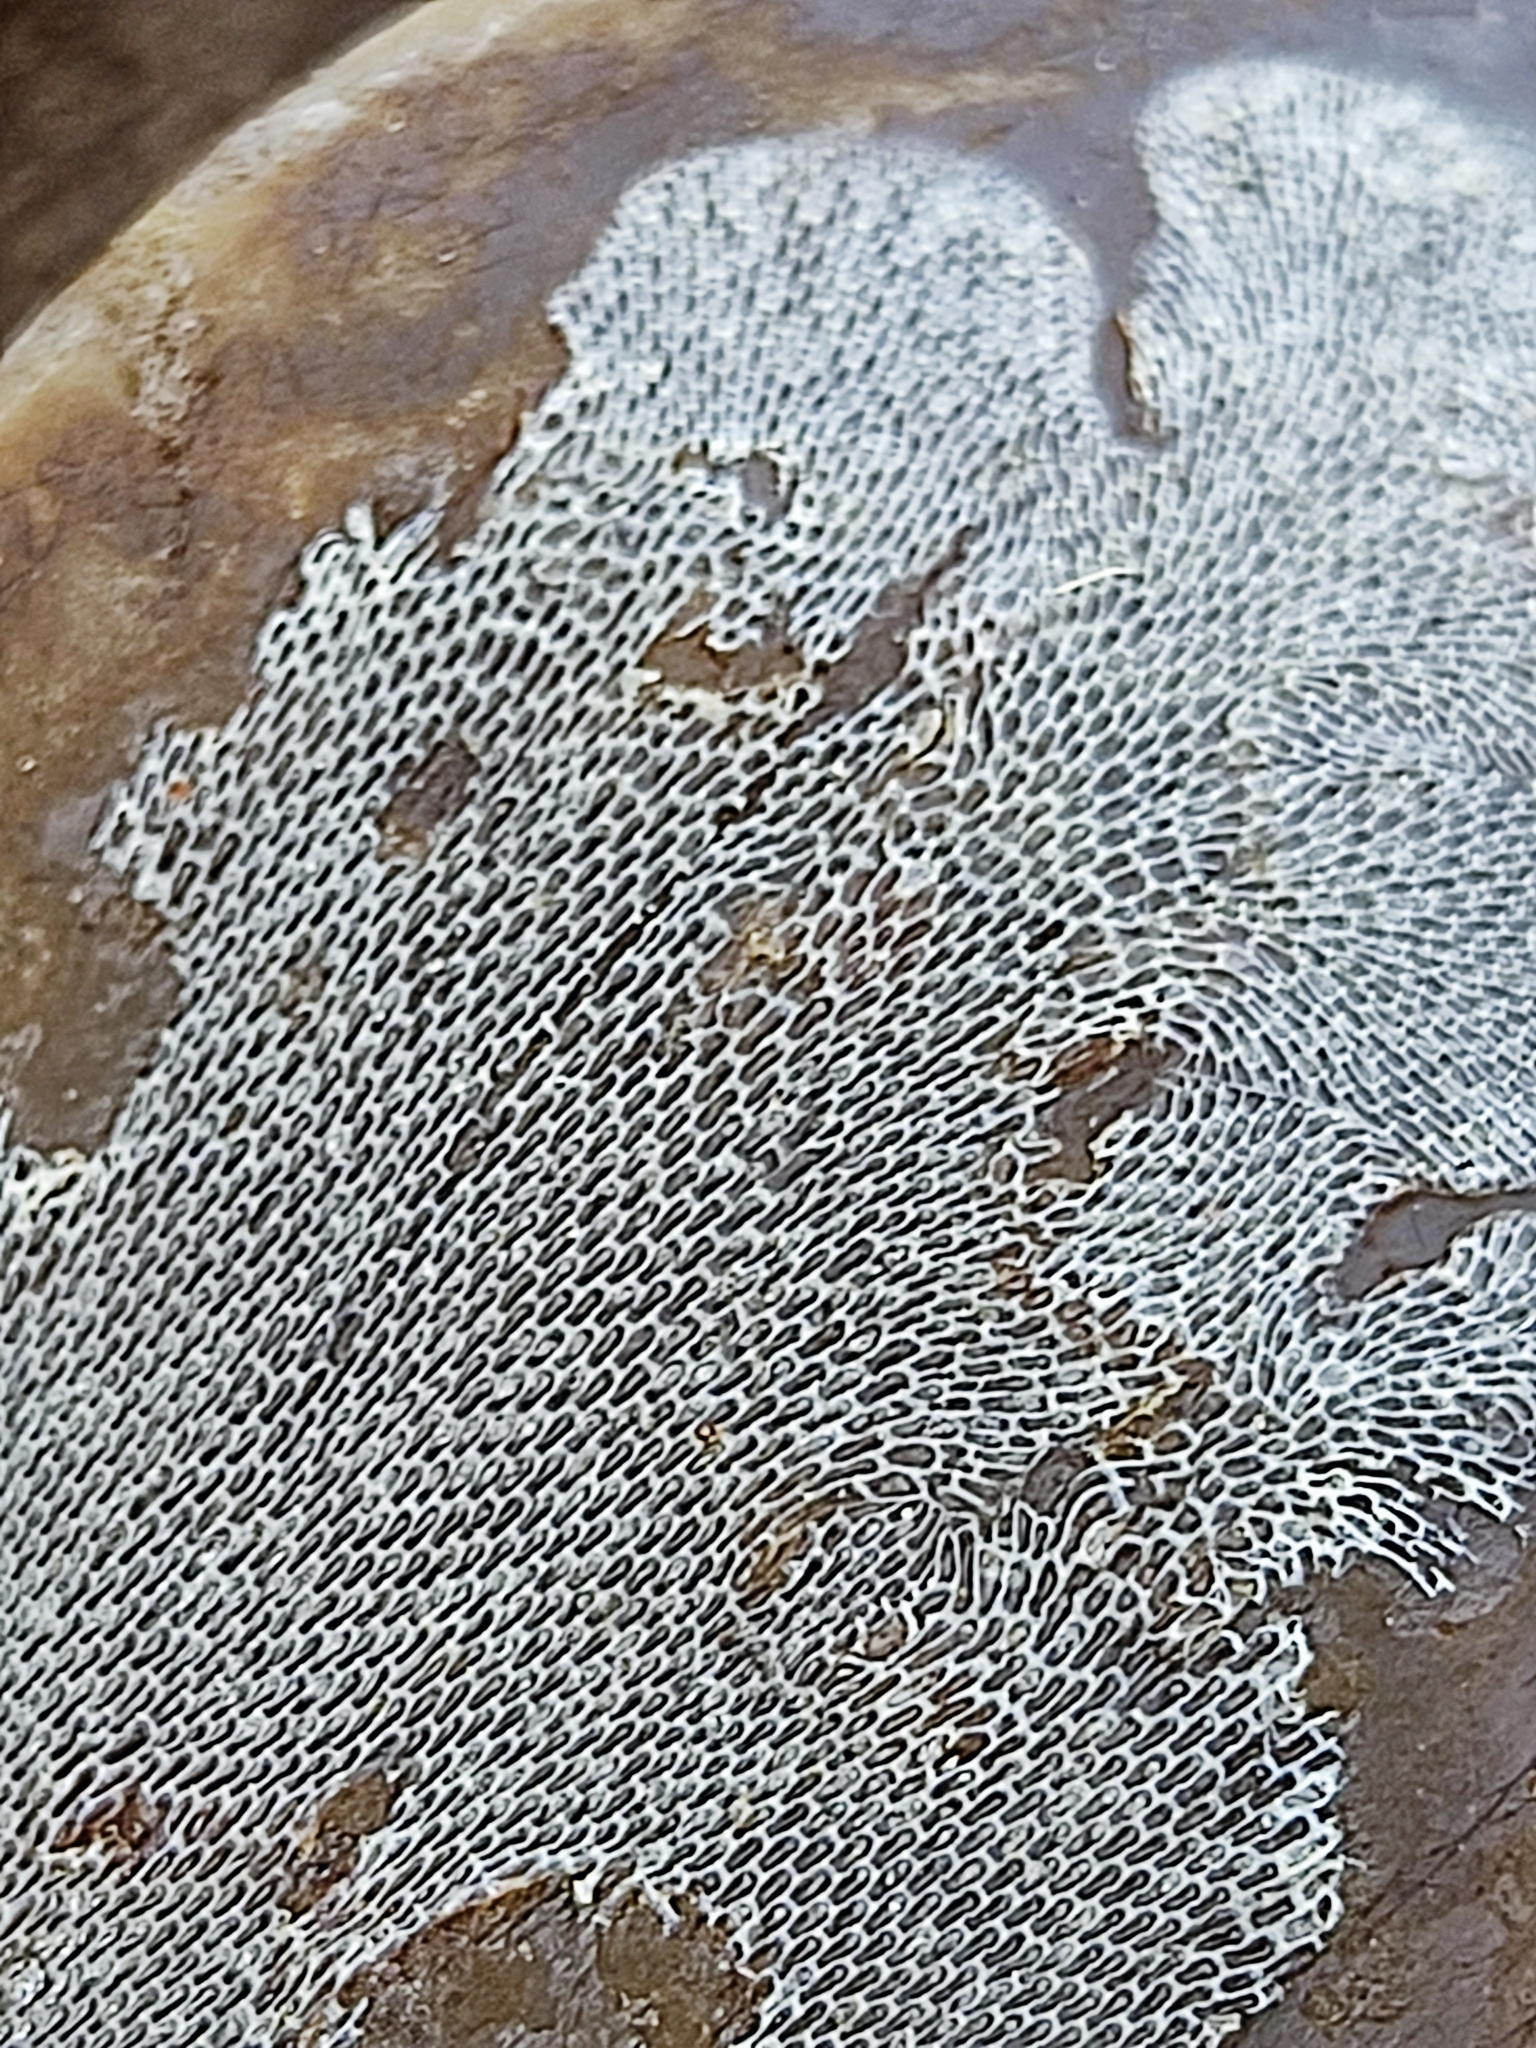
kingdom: Animalia
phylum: Bryozoa
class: Gymnolaemata
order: Cheilostomatida
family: Membraniporidae
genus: Membranipora
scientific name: Membranipora membranacea
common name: Sea mat
